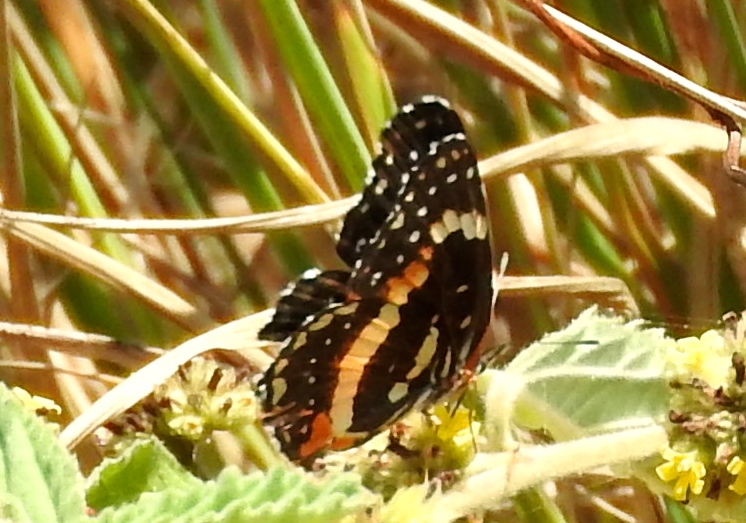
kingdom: Animalia
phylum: Arthropoda
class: Insecta
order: Lepidoptera
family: Nymphalidae
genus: Chlosyne
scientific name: Chlosyne lacinia
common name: Bordered patch
